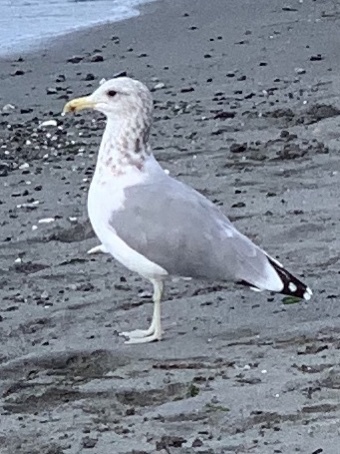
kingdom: Animalia
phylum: Chordata
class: Aves
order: Charadriiformes
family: Laridae
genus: Larus
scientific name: Larus californicus
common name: California gull
